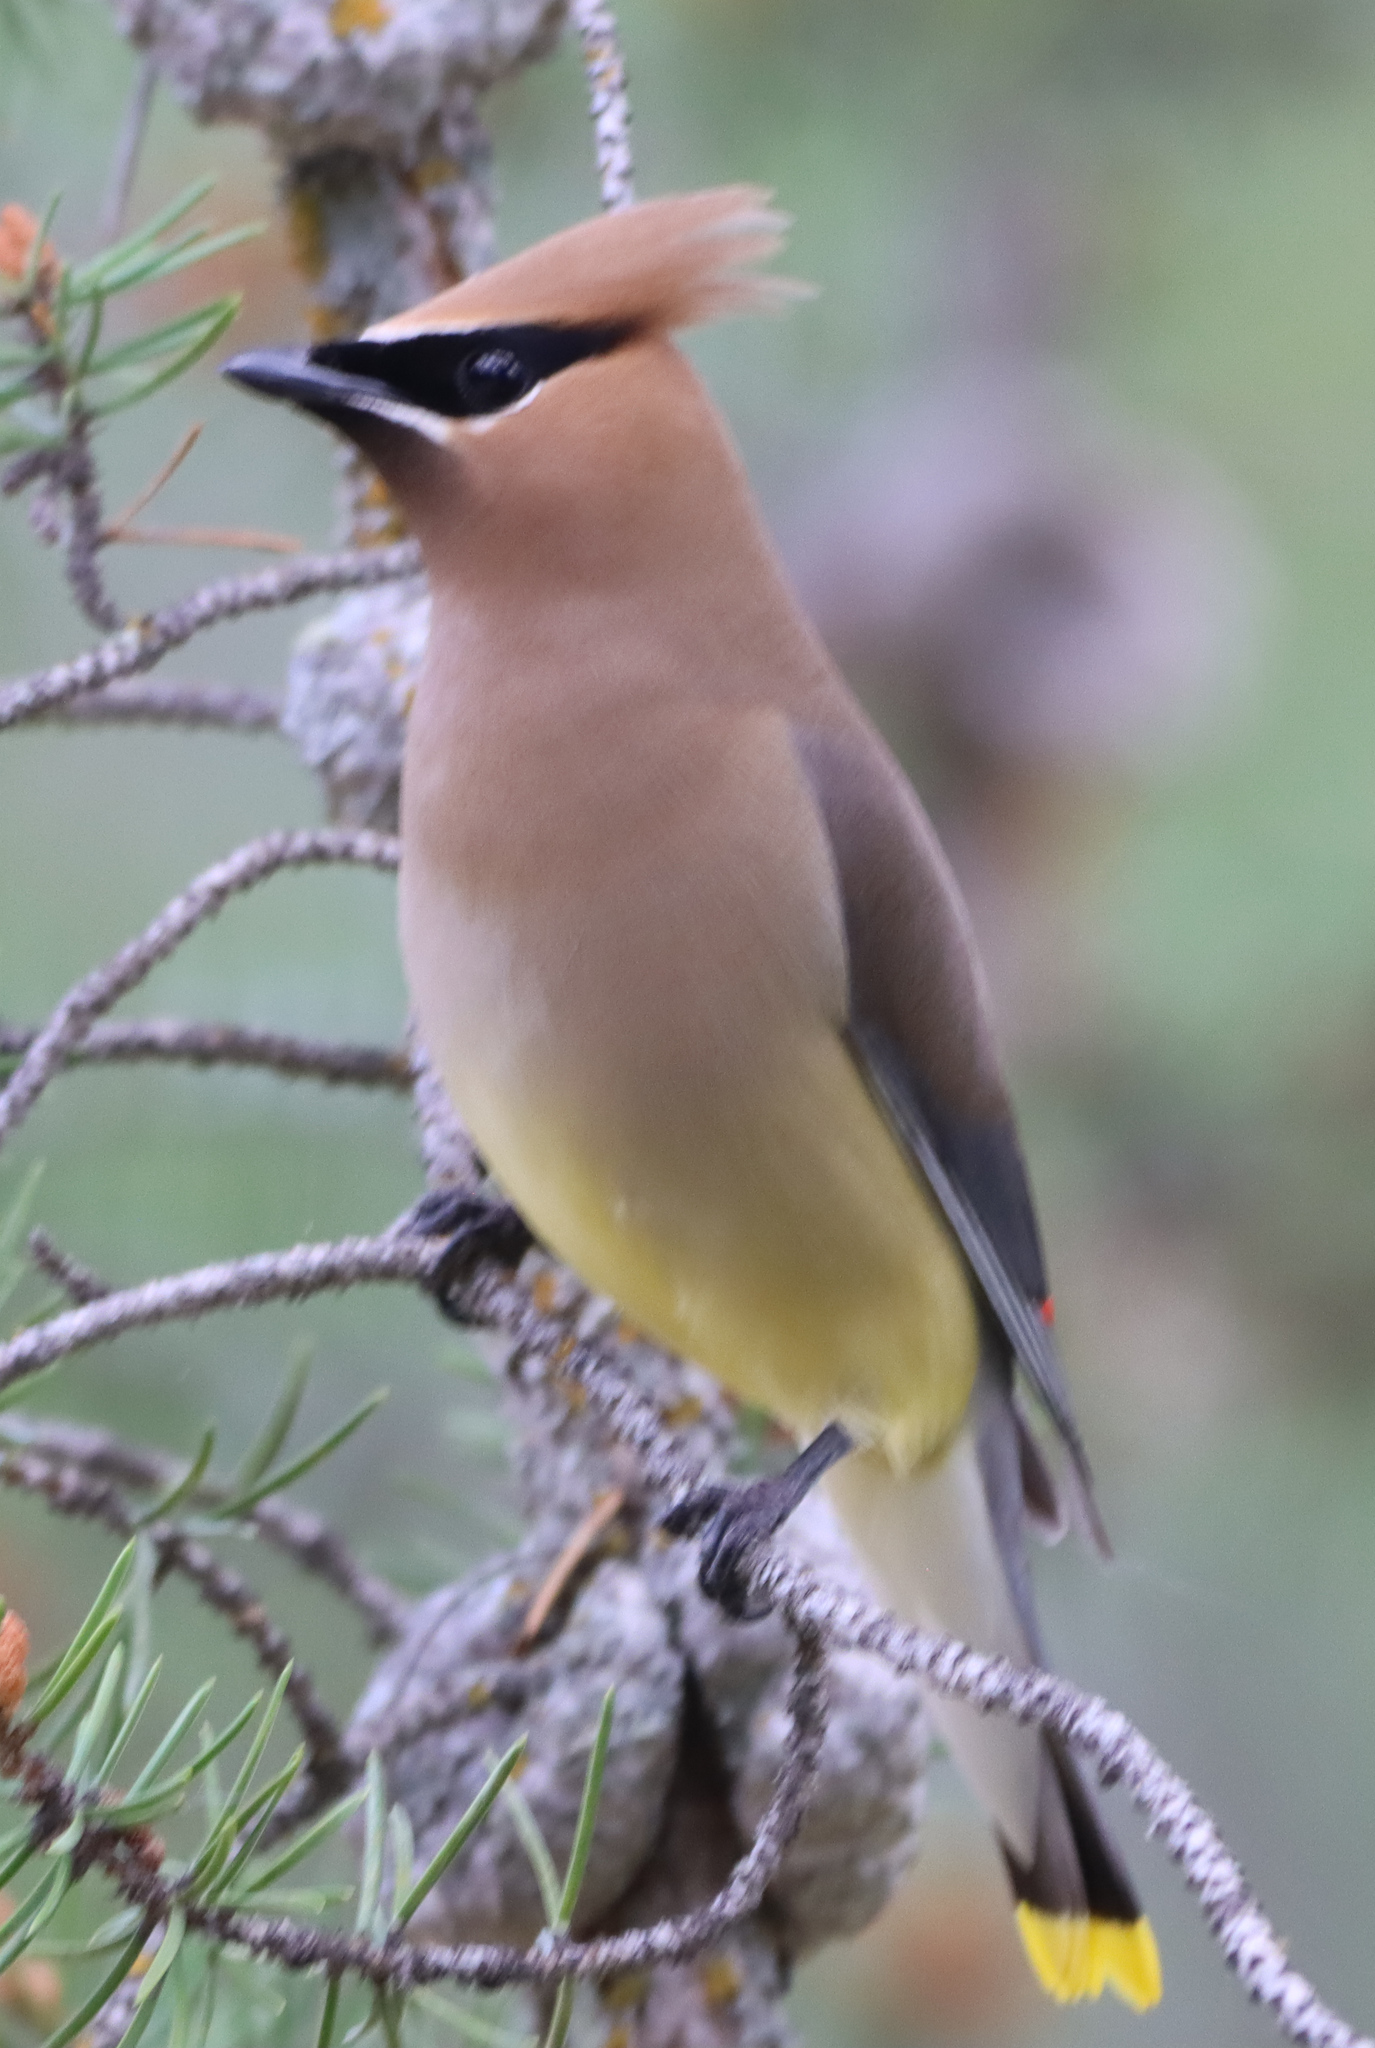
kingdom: Animalia
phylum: Chordata
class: Aves
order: Passeriformes
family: Bombycillidae
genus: Bombycilla
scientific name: Bombycilla cedrorum
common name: Cedar waxwing
